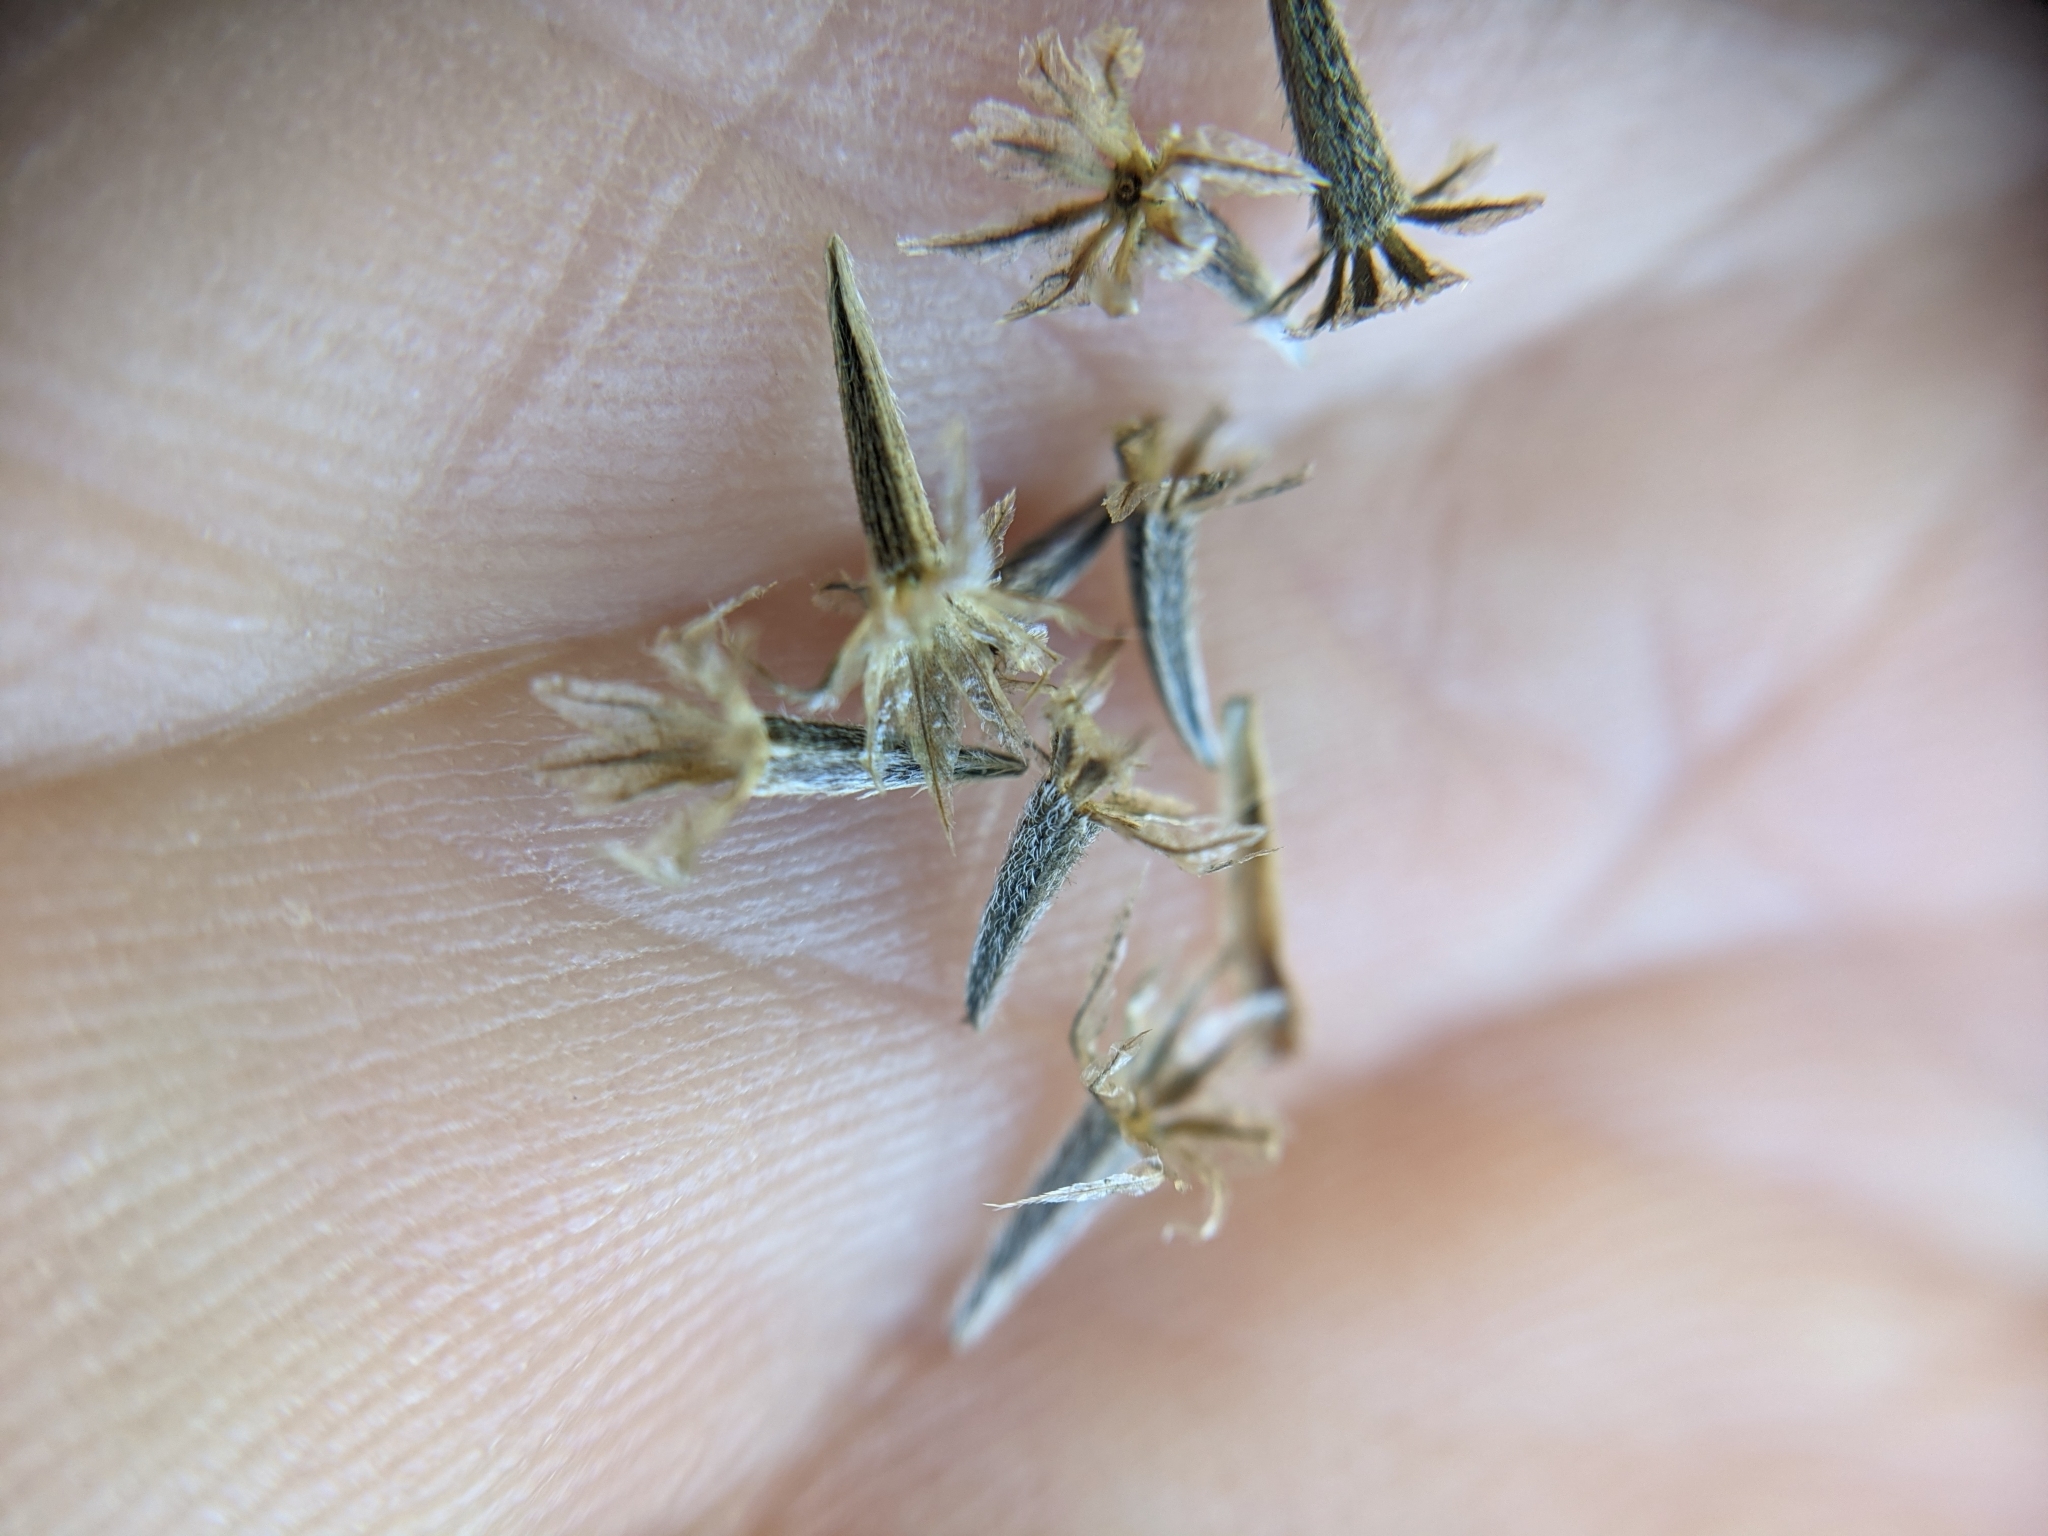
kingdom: Plantae
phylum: Tracheophyta
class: Magnoliopsida
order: Asterales
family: Asteraceae
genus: Palafoxia
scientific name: Palafoxia rosea
